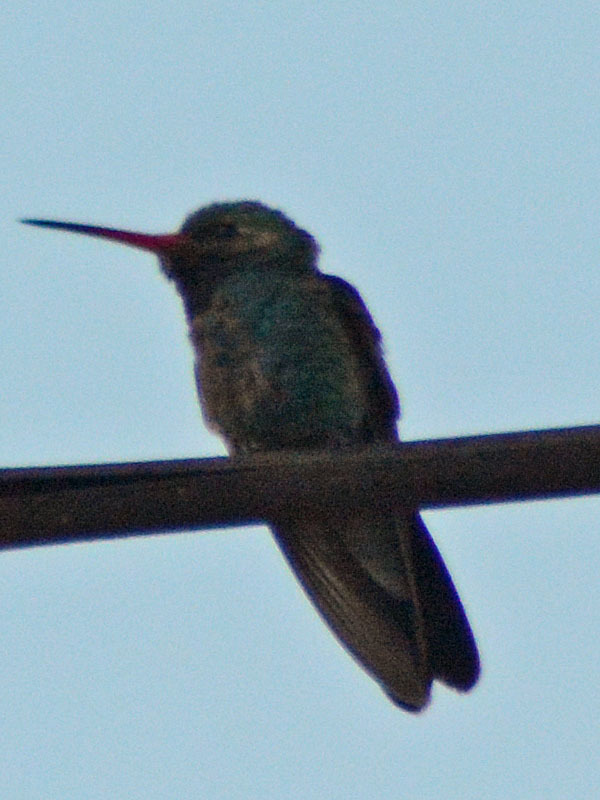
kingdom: Animalia
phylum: Chordata
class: Aves
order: Apodiformes
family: Trochilidae
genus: Cynanthus
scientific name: Cynanthus latirostris
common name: Broad-billed hummingbird
